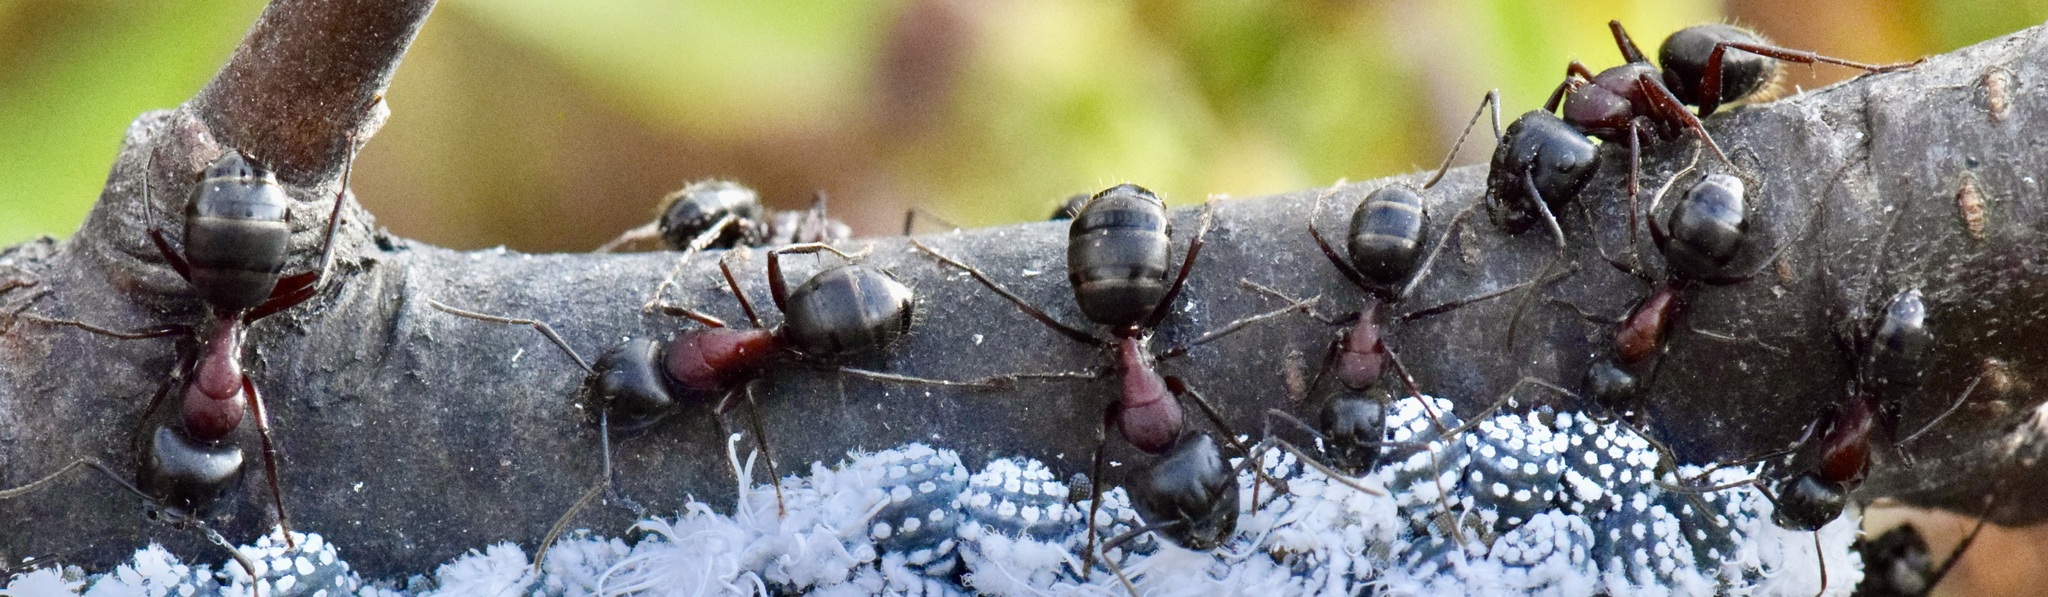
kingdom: Animalia
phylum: Arthropoda
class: Insecta
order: Hymenoptera
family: Formicidae
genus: Camponotus
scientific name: Camponotus novaeboracensis
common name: New york carpenter ant
